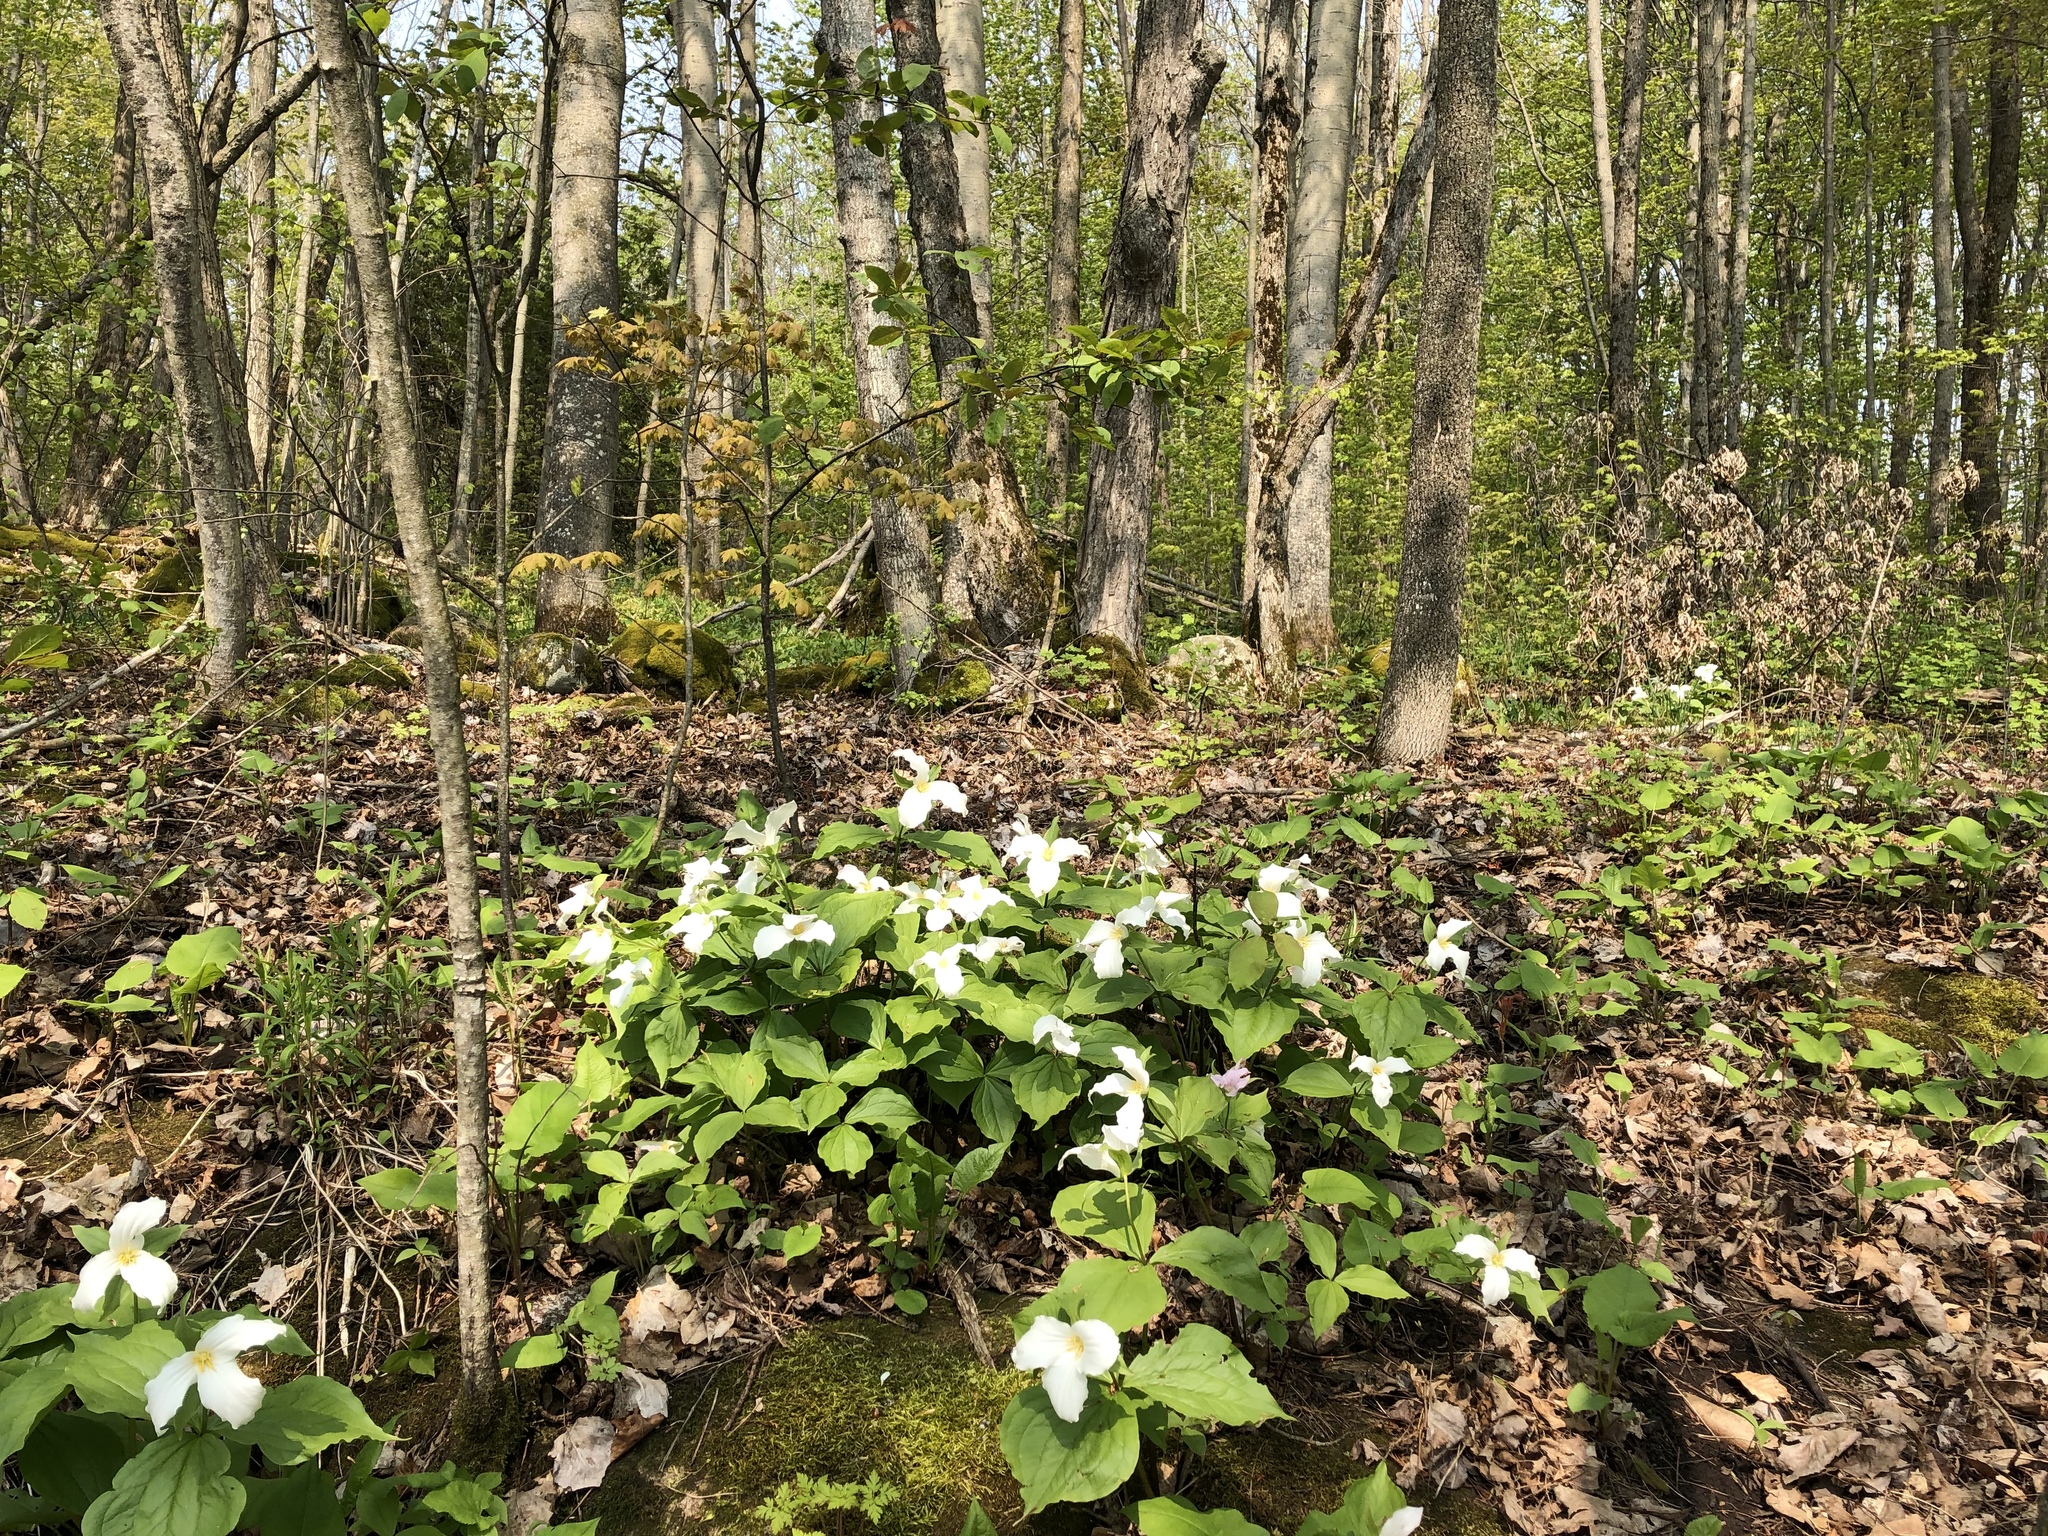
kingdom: Plantae
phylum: Tracheophyta
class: Liliopsida
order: Liliales
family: Melanthiaceae
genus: Trillium
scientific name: Trillium grandiflorum
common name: Great white trillium
